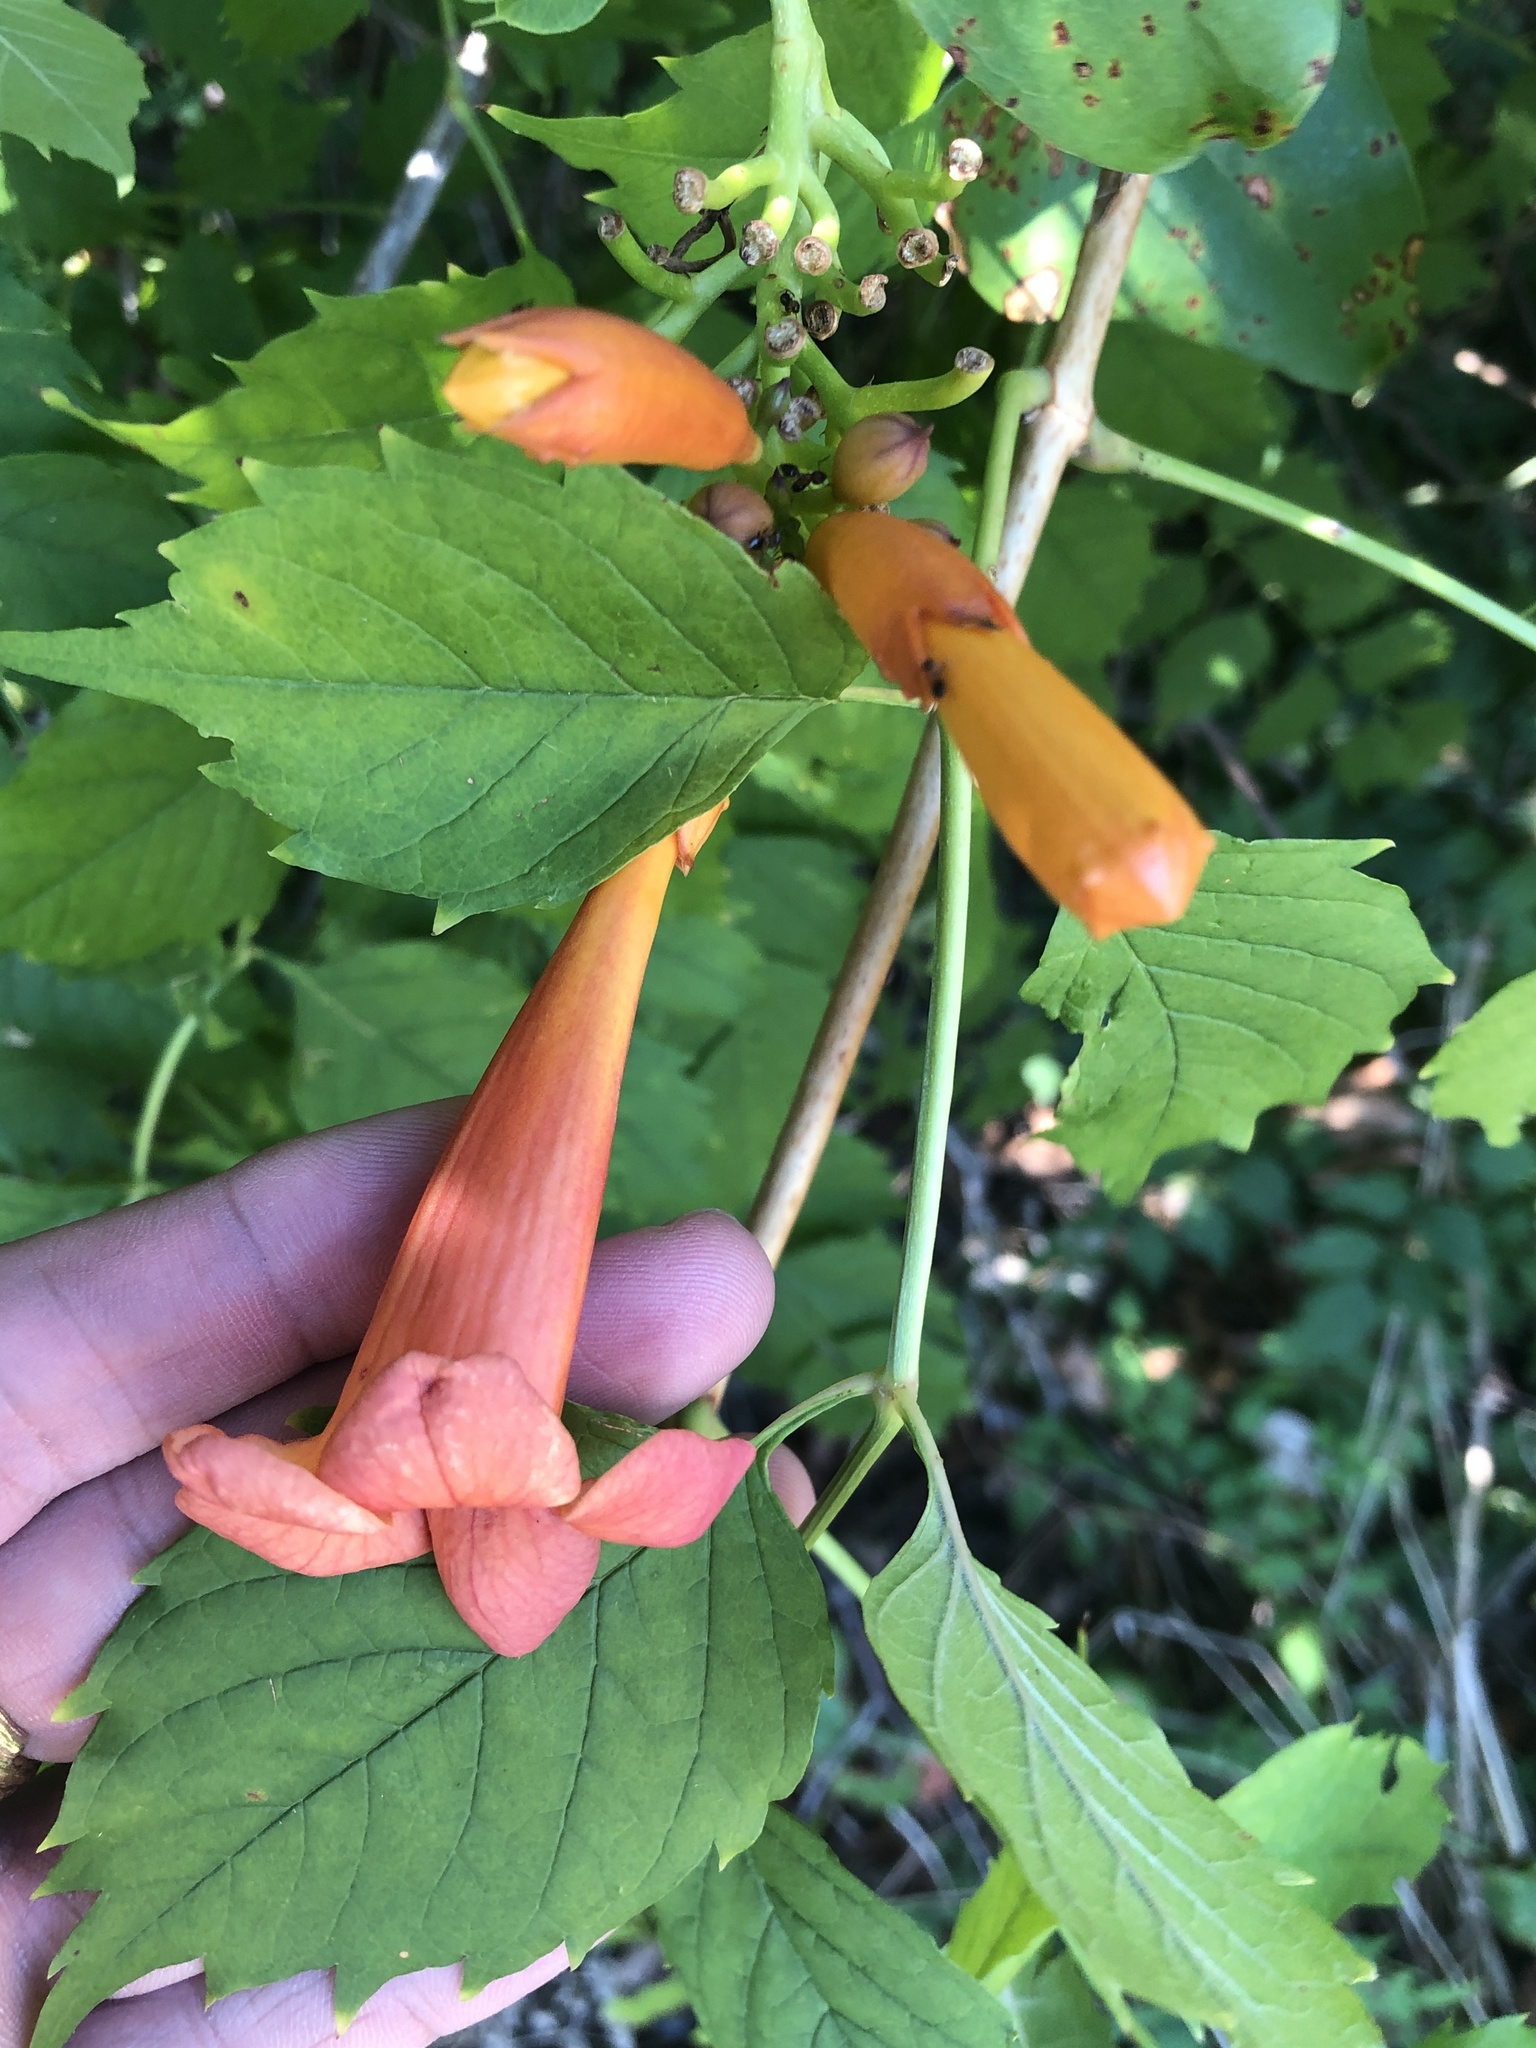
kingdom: Plantae
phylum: Tracheophyta
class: Magnoliopsida
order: Lamiales
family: Bignoniaceae
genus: Campsis
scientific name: Campsis radicans
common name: Trumpet-creeper
